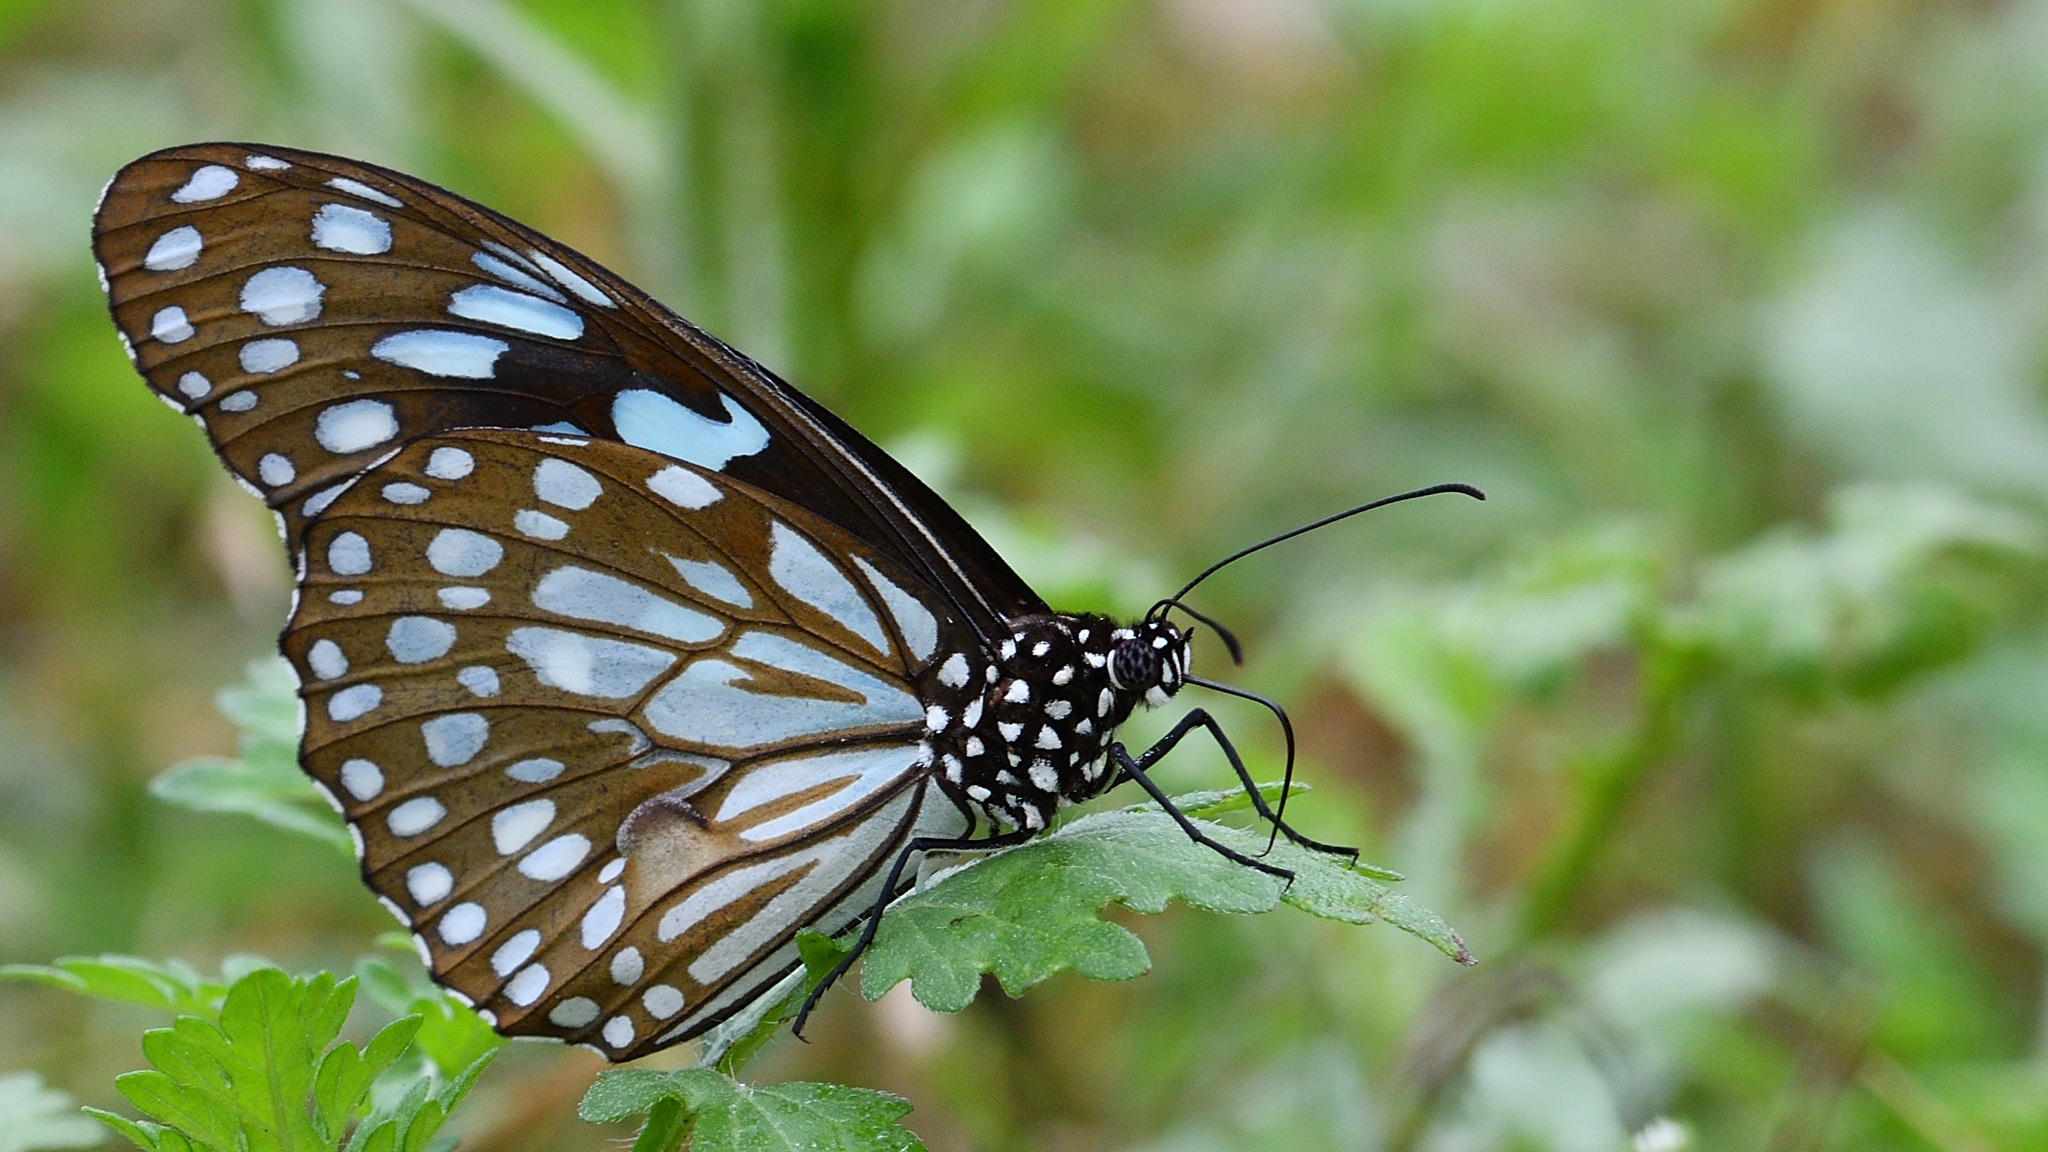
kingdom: Animalia
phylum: Arthropoda
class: Insecta
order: Lepidoptera
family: Nymphalidae
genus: Tirumala
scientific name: Tirumala limniace
